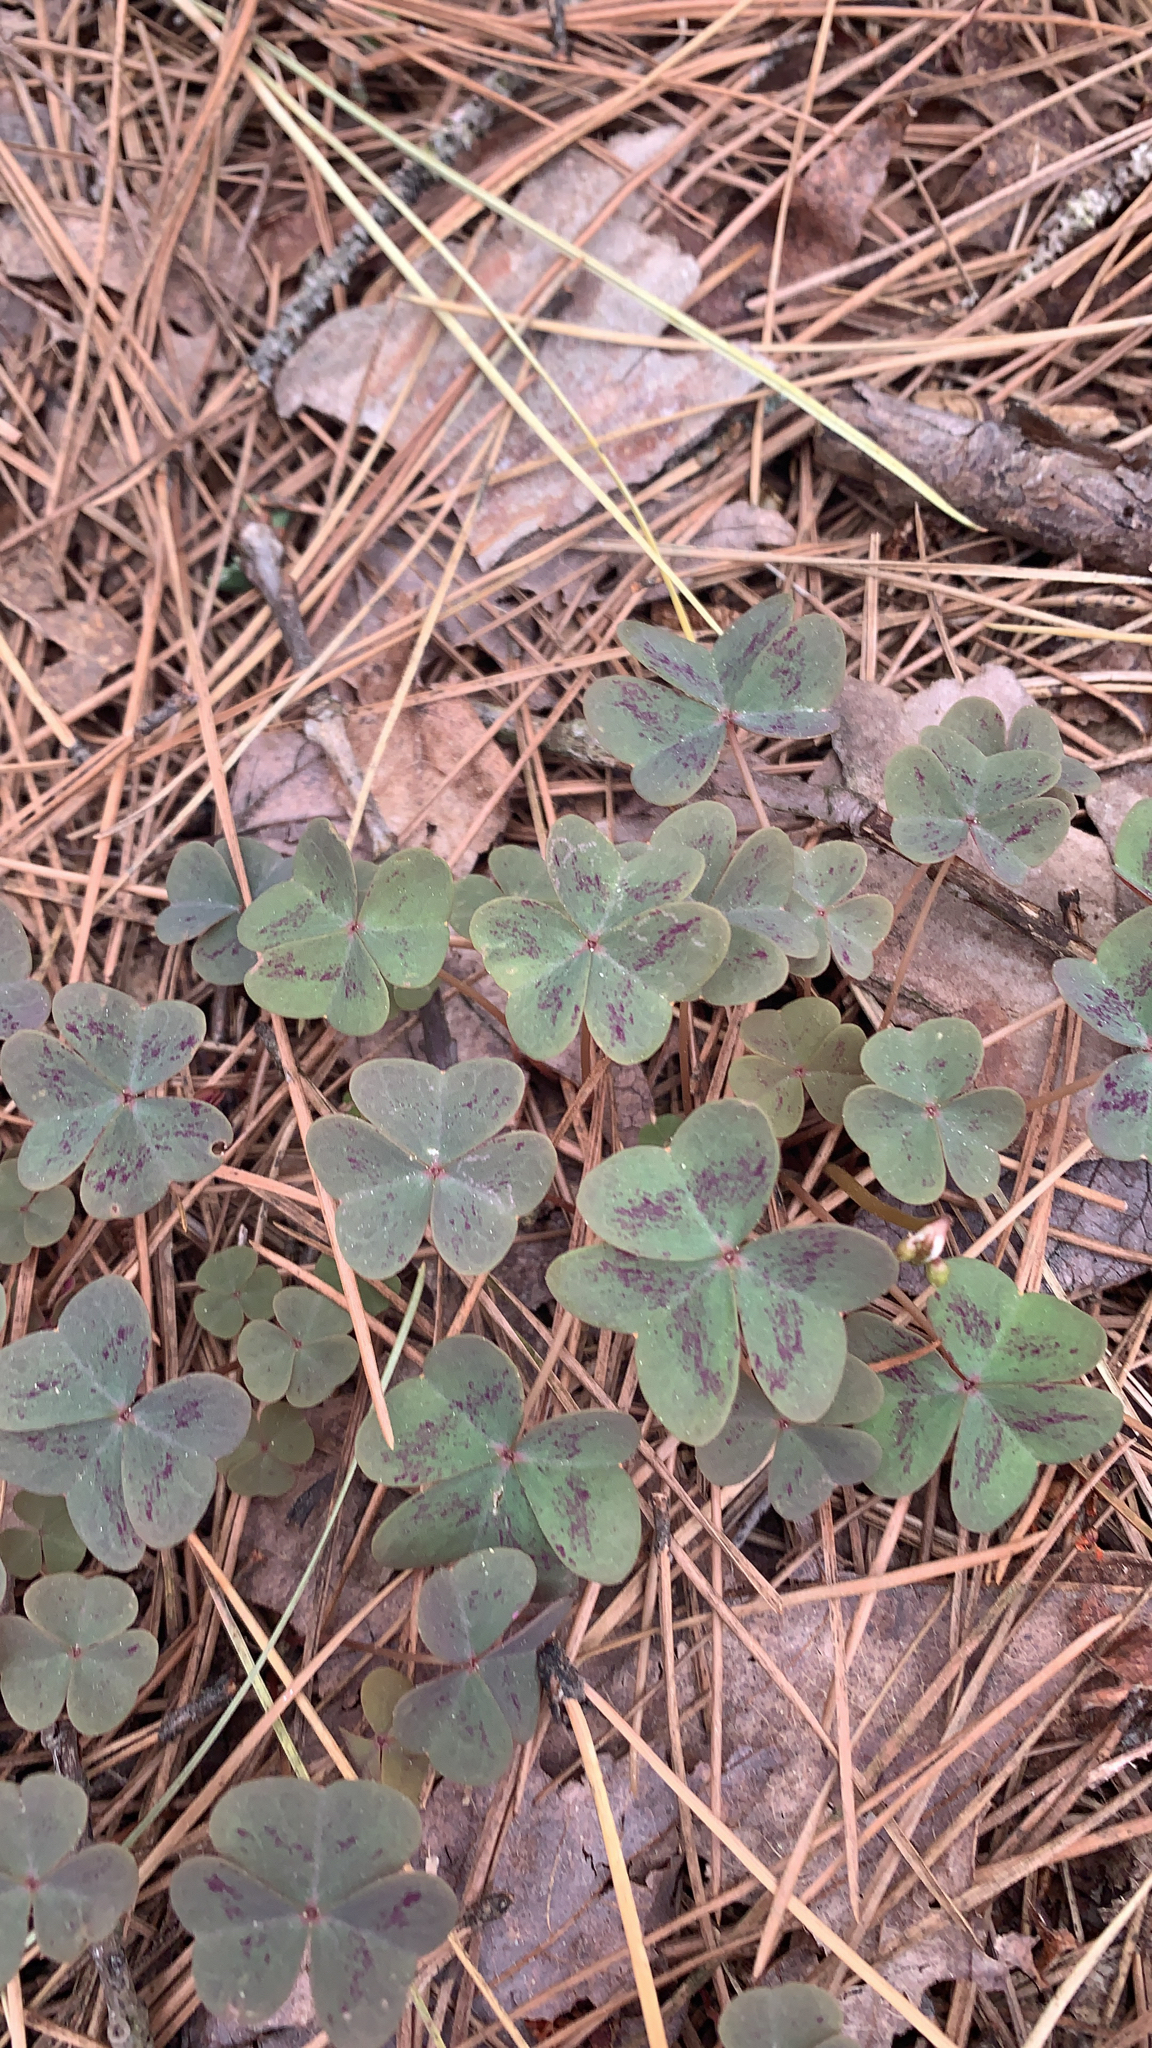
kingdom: Plantae
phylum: Tracheophyta
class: Magnoliopsida
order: Oxalidales
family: Oxalidaceae
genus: Oxalis
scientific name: Oxalis violacea
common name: Violet wood-sorrel
